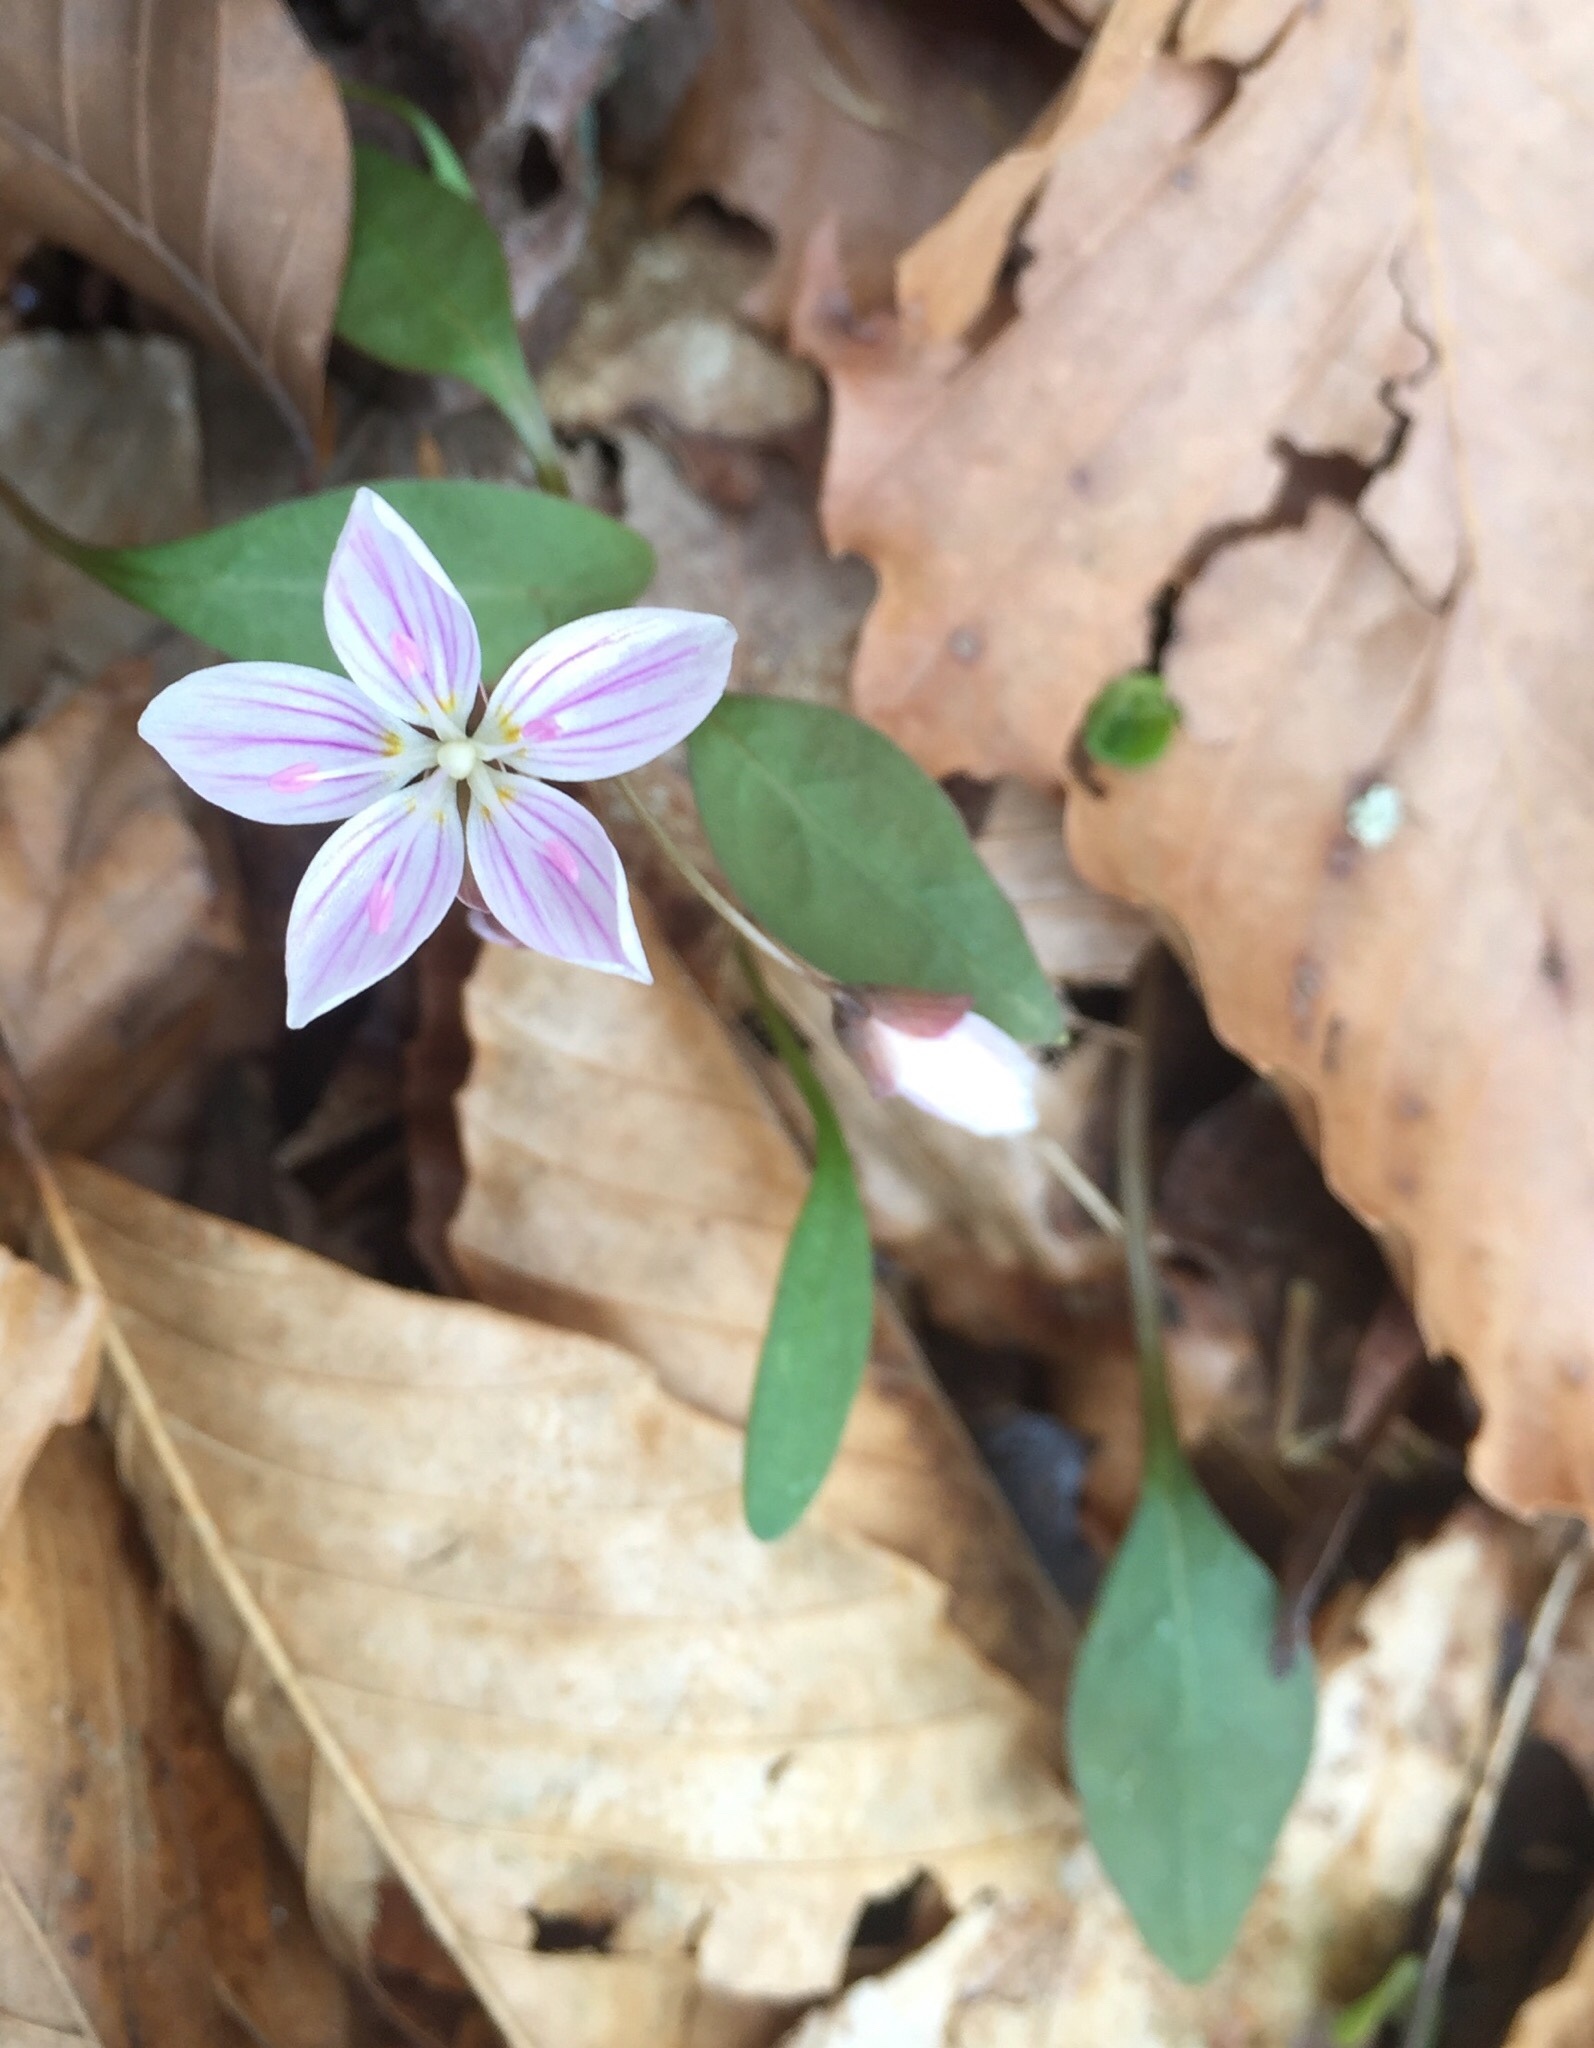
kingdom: Plantae
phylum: Tracheophyta
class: Magnoliopsida
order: Caryophyllales
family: Montiaceae
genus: Claytonia
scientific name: Claytonia caroliniana
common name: Carolina spring beauty
